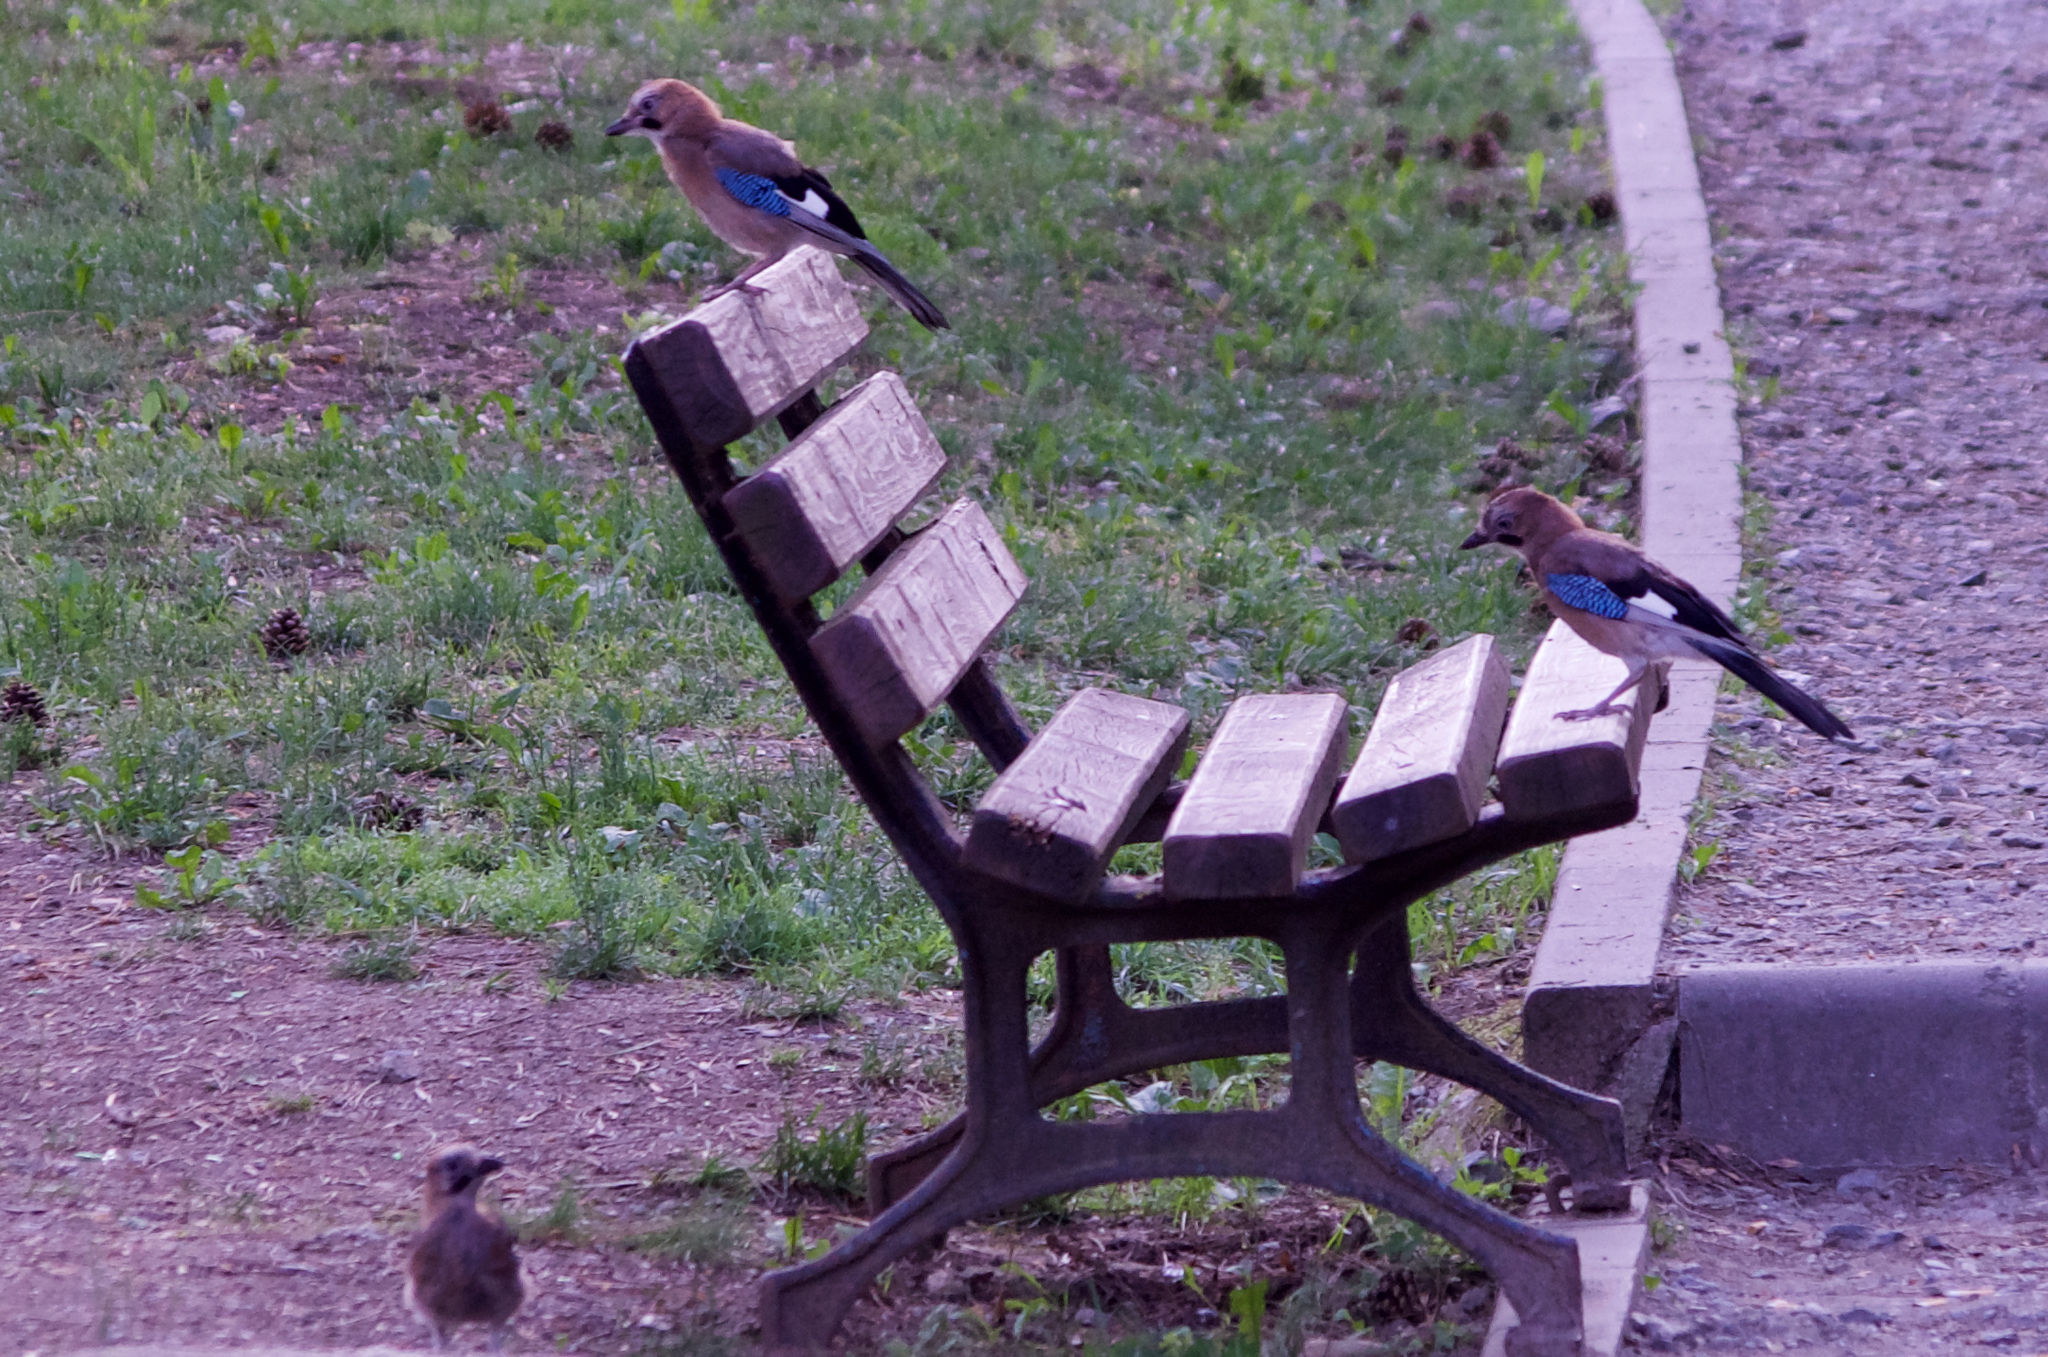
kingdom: Animalia
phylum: Chordata
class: Aves
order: Passeriformes
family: Corvidae
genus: Garrulus
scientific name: Garrulus glandarius
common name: Eurasian jay
